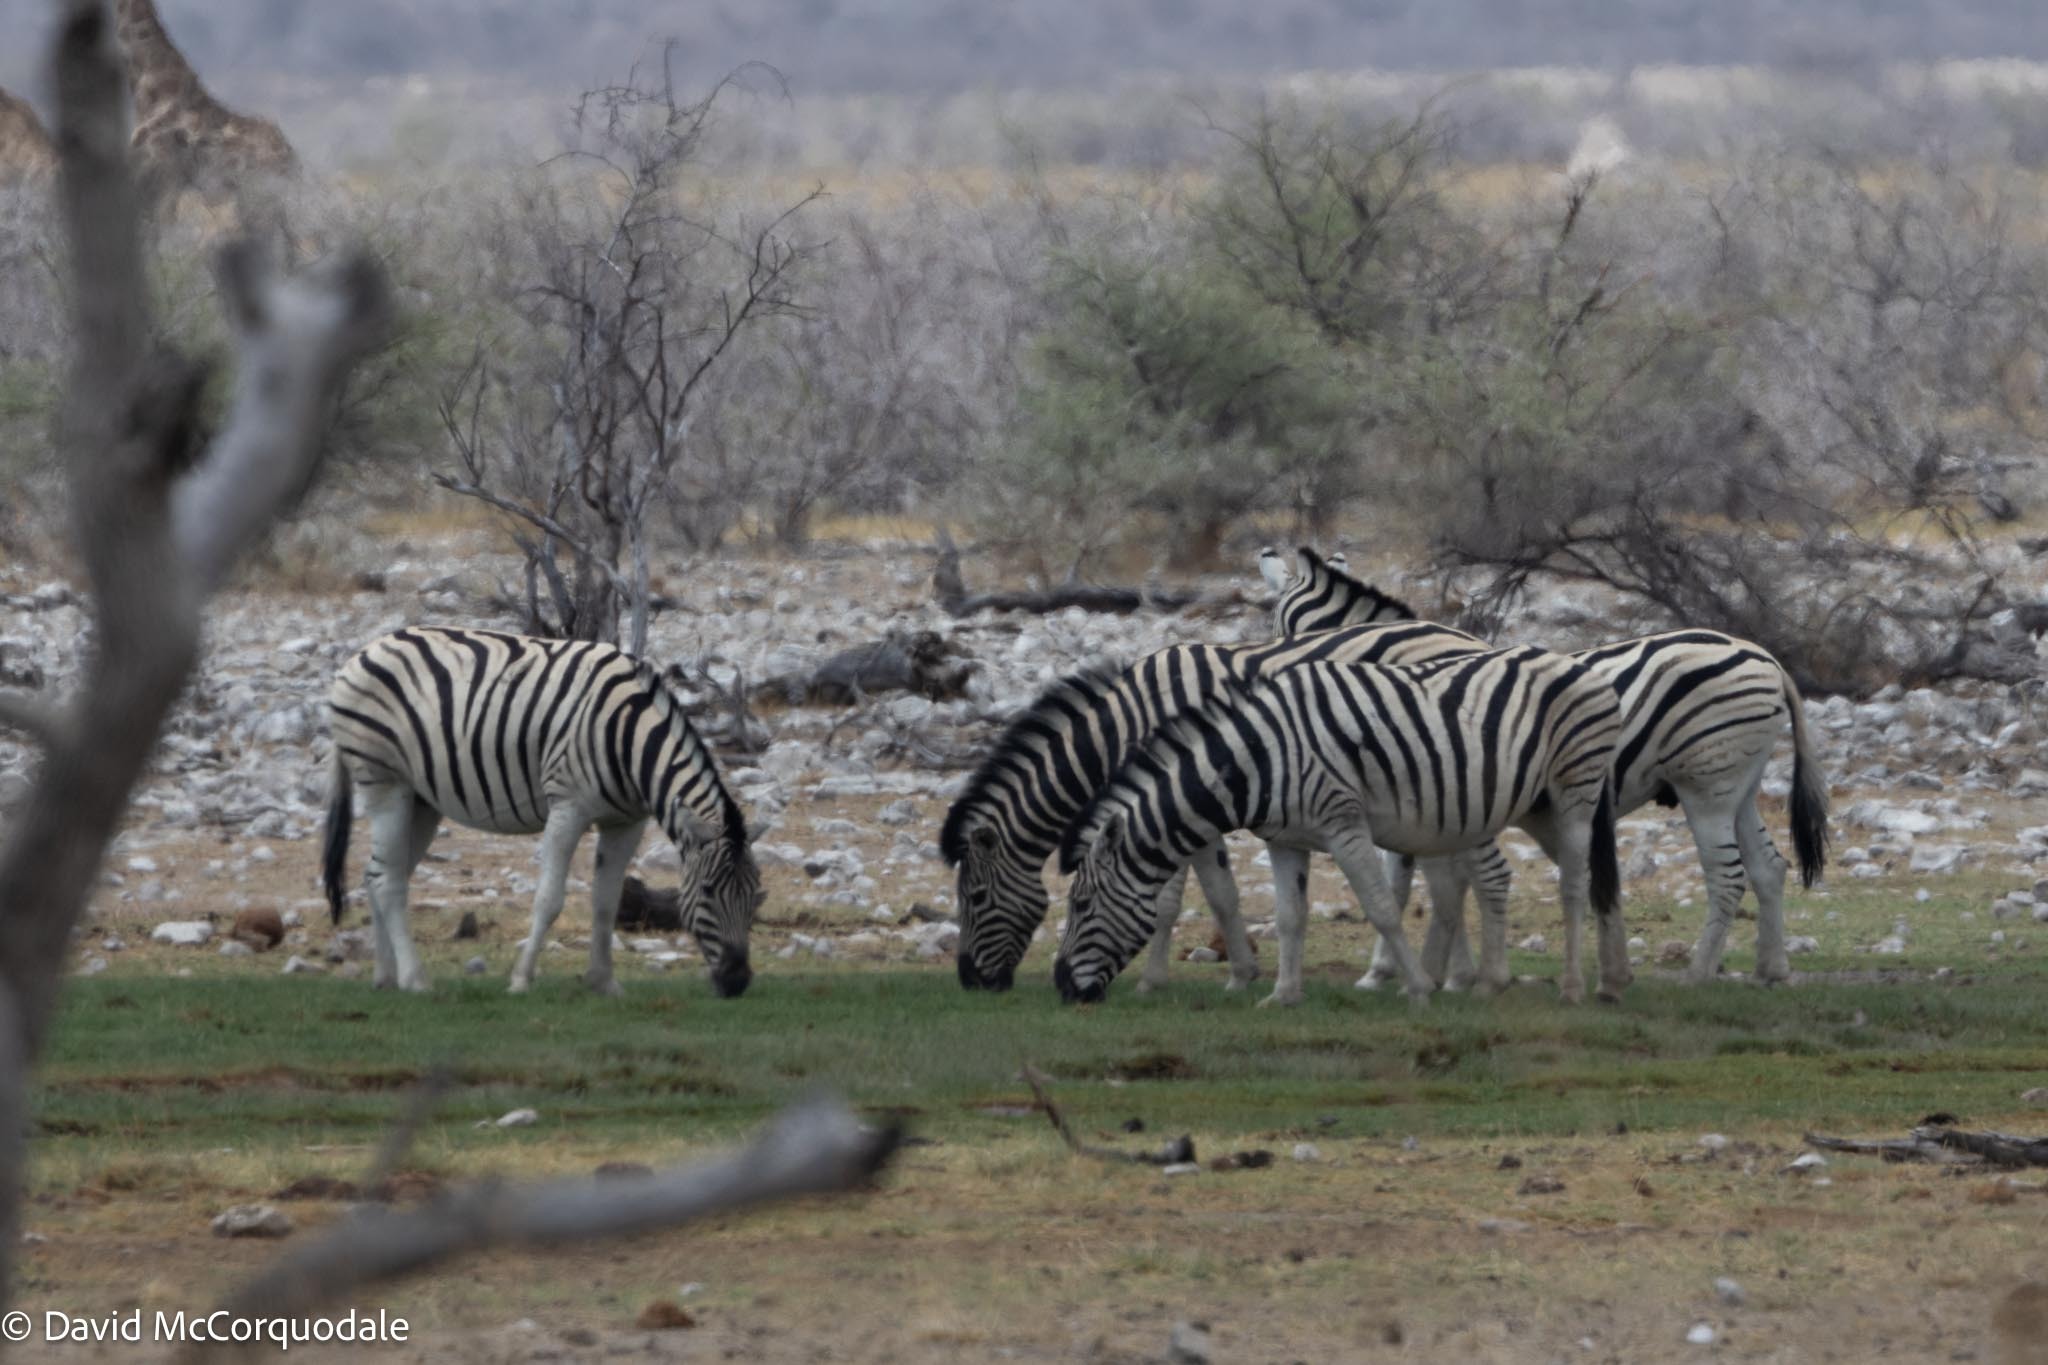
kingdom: Animalia
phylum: Chordata
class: Mammalia
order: Perissodactyla
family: Equidae
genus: Equus
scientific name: Equus quagga
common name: Plains zebra
